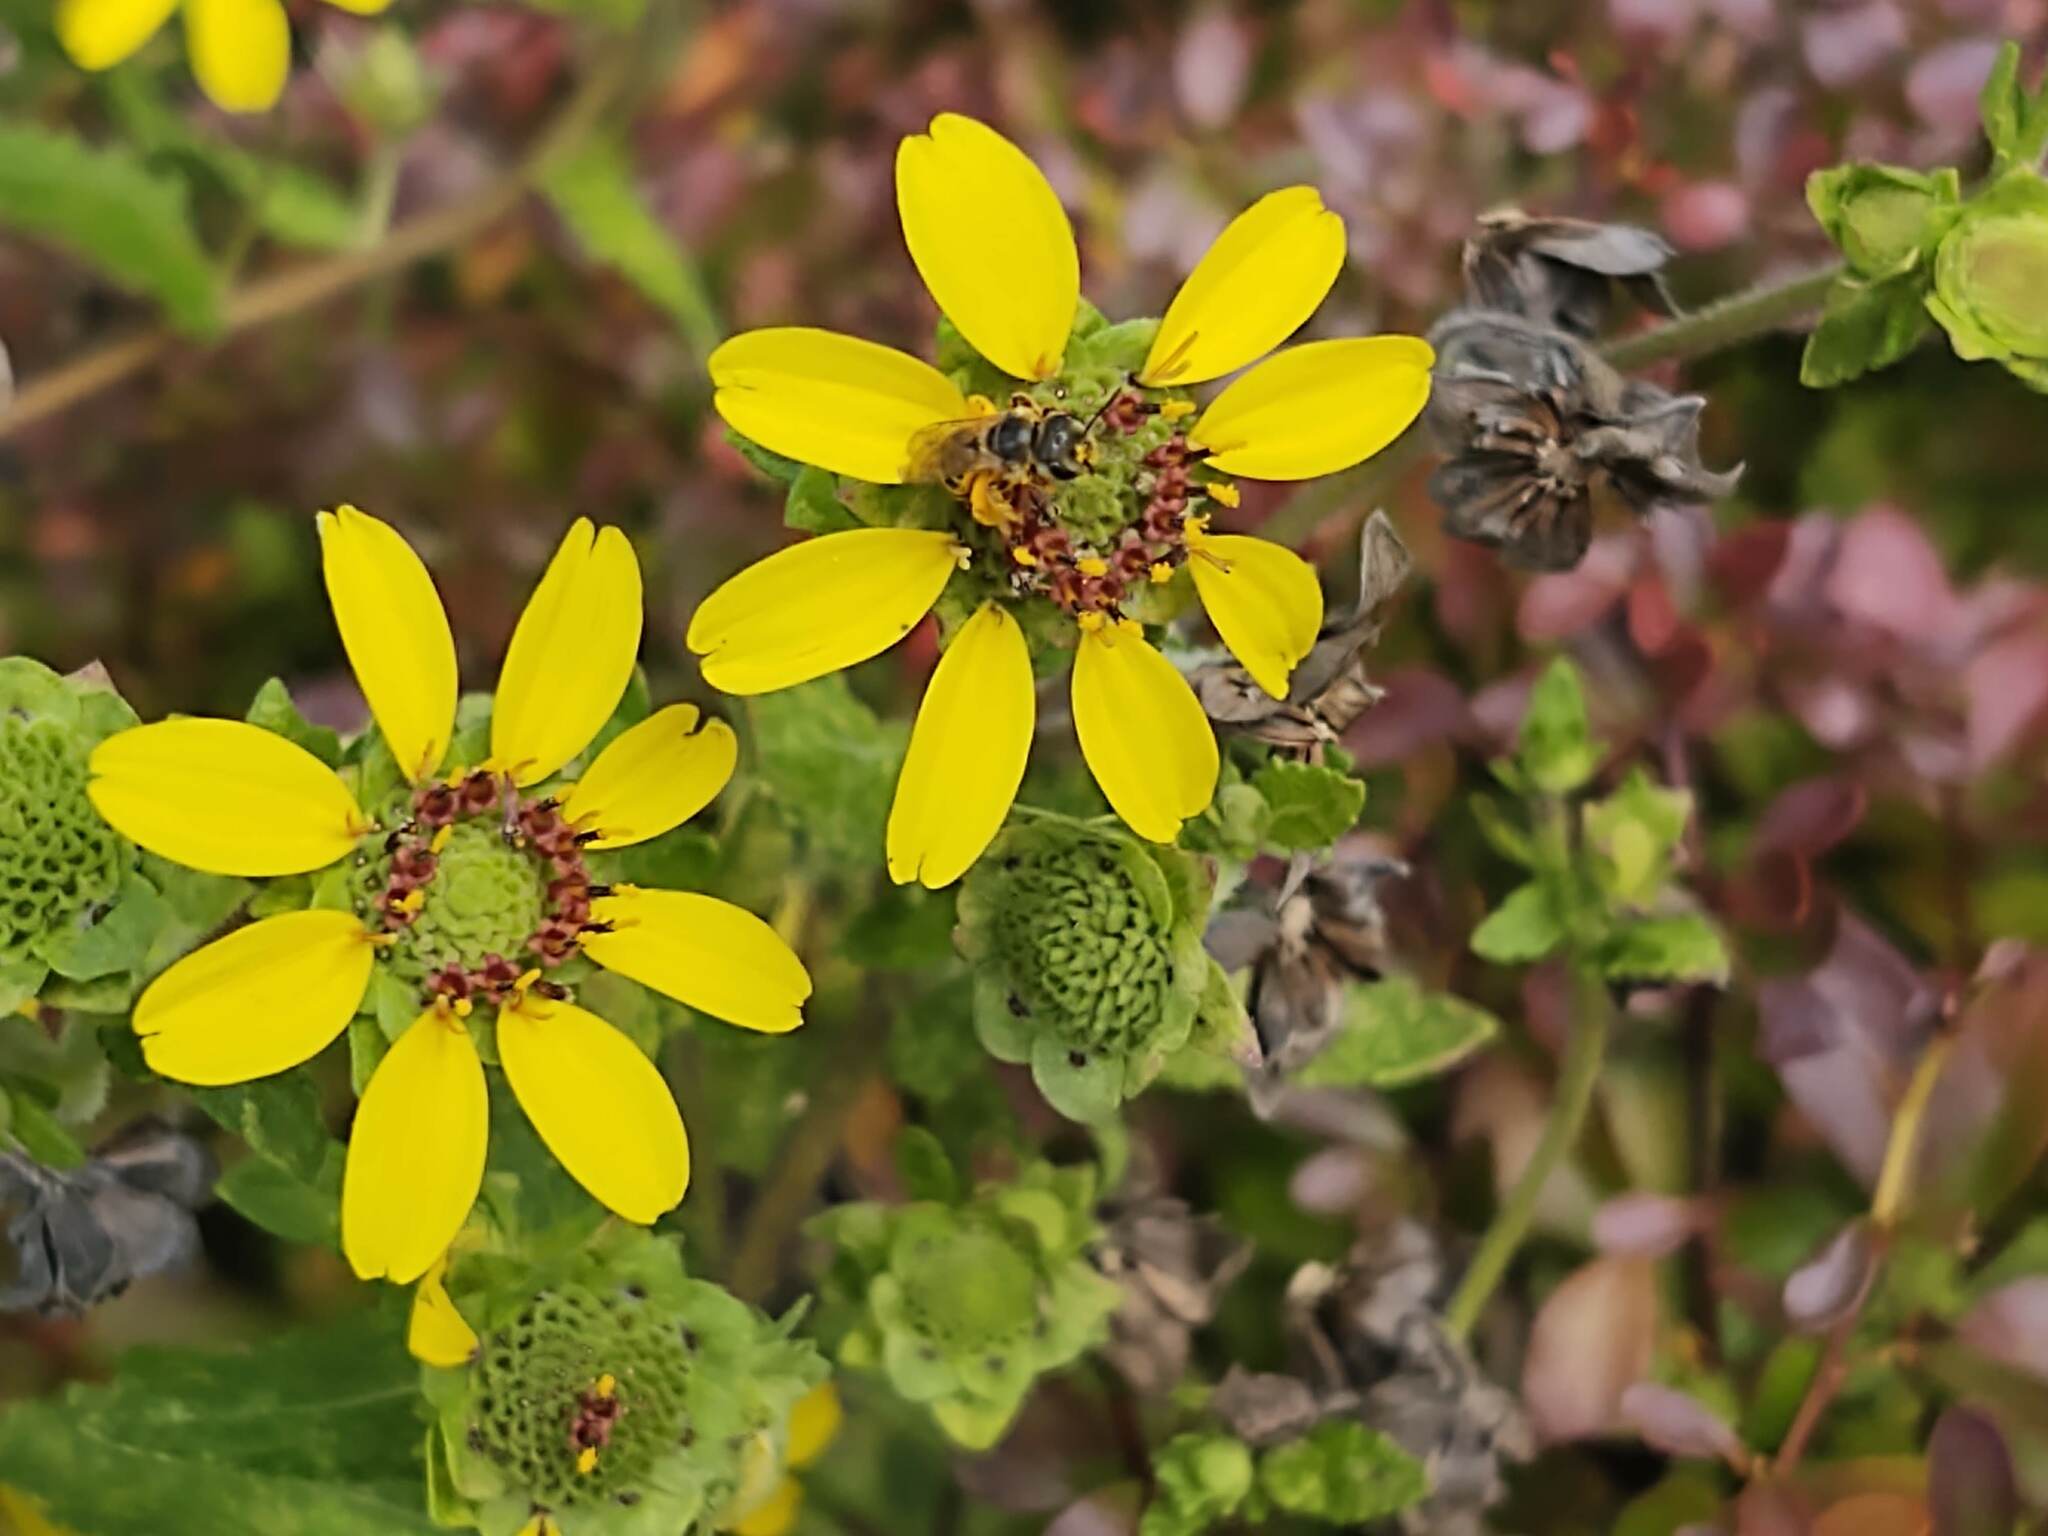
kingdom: Animalia
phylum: Arthropoda
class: Insecta
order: Hymenoptera
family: Halictidae
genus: Halictus
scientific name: Halictus ligatus
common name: Ligated furrow bee
